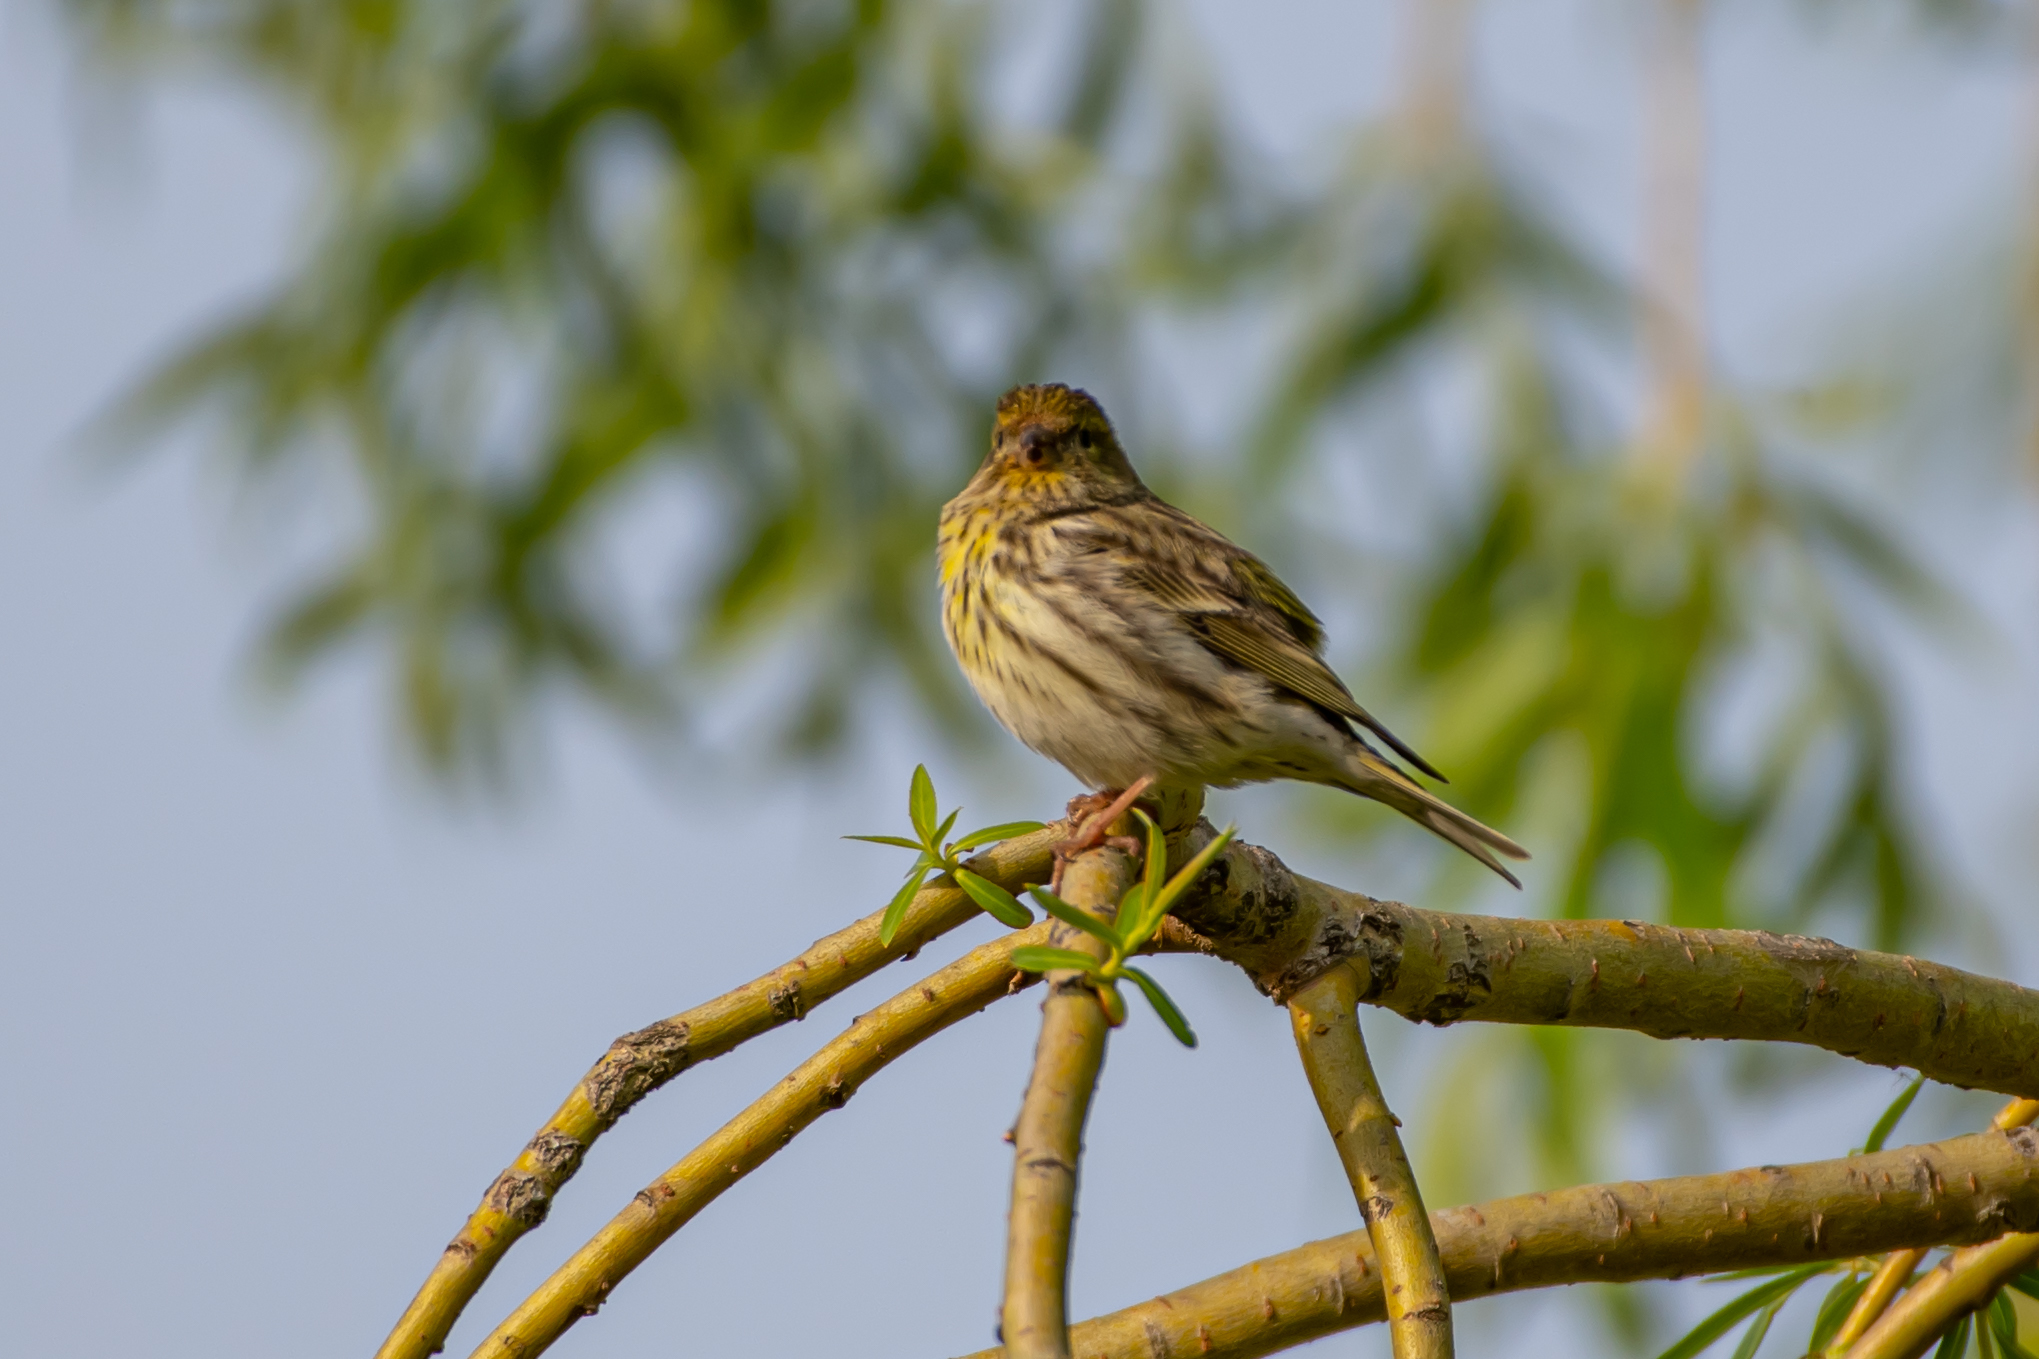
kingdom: Animalia
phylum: Chordata
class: Aves
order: Passeriformes
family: Fringillidae
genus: Serinus
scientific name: Serinus serinus
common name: European serin
